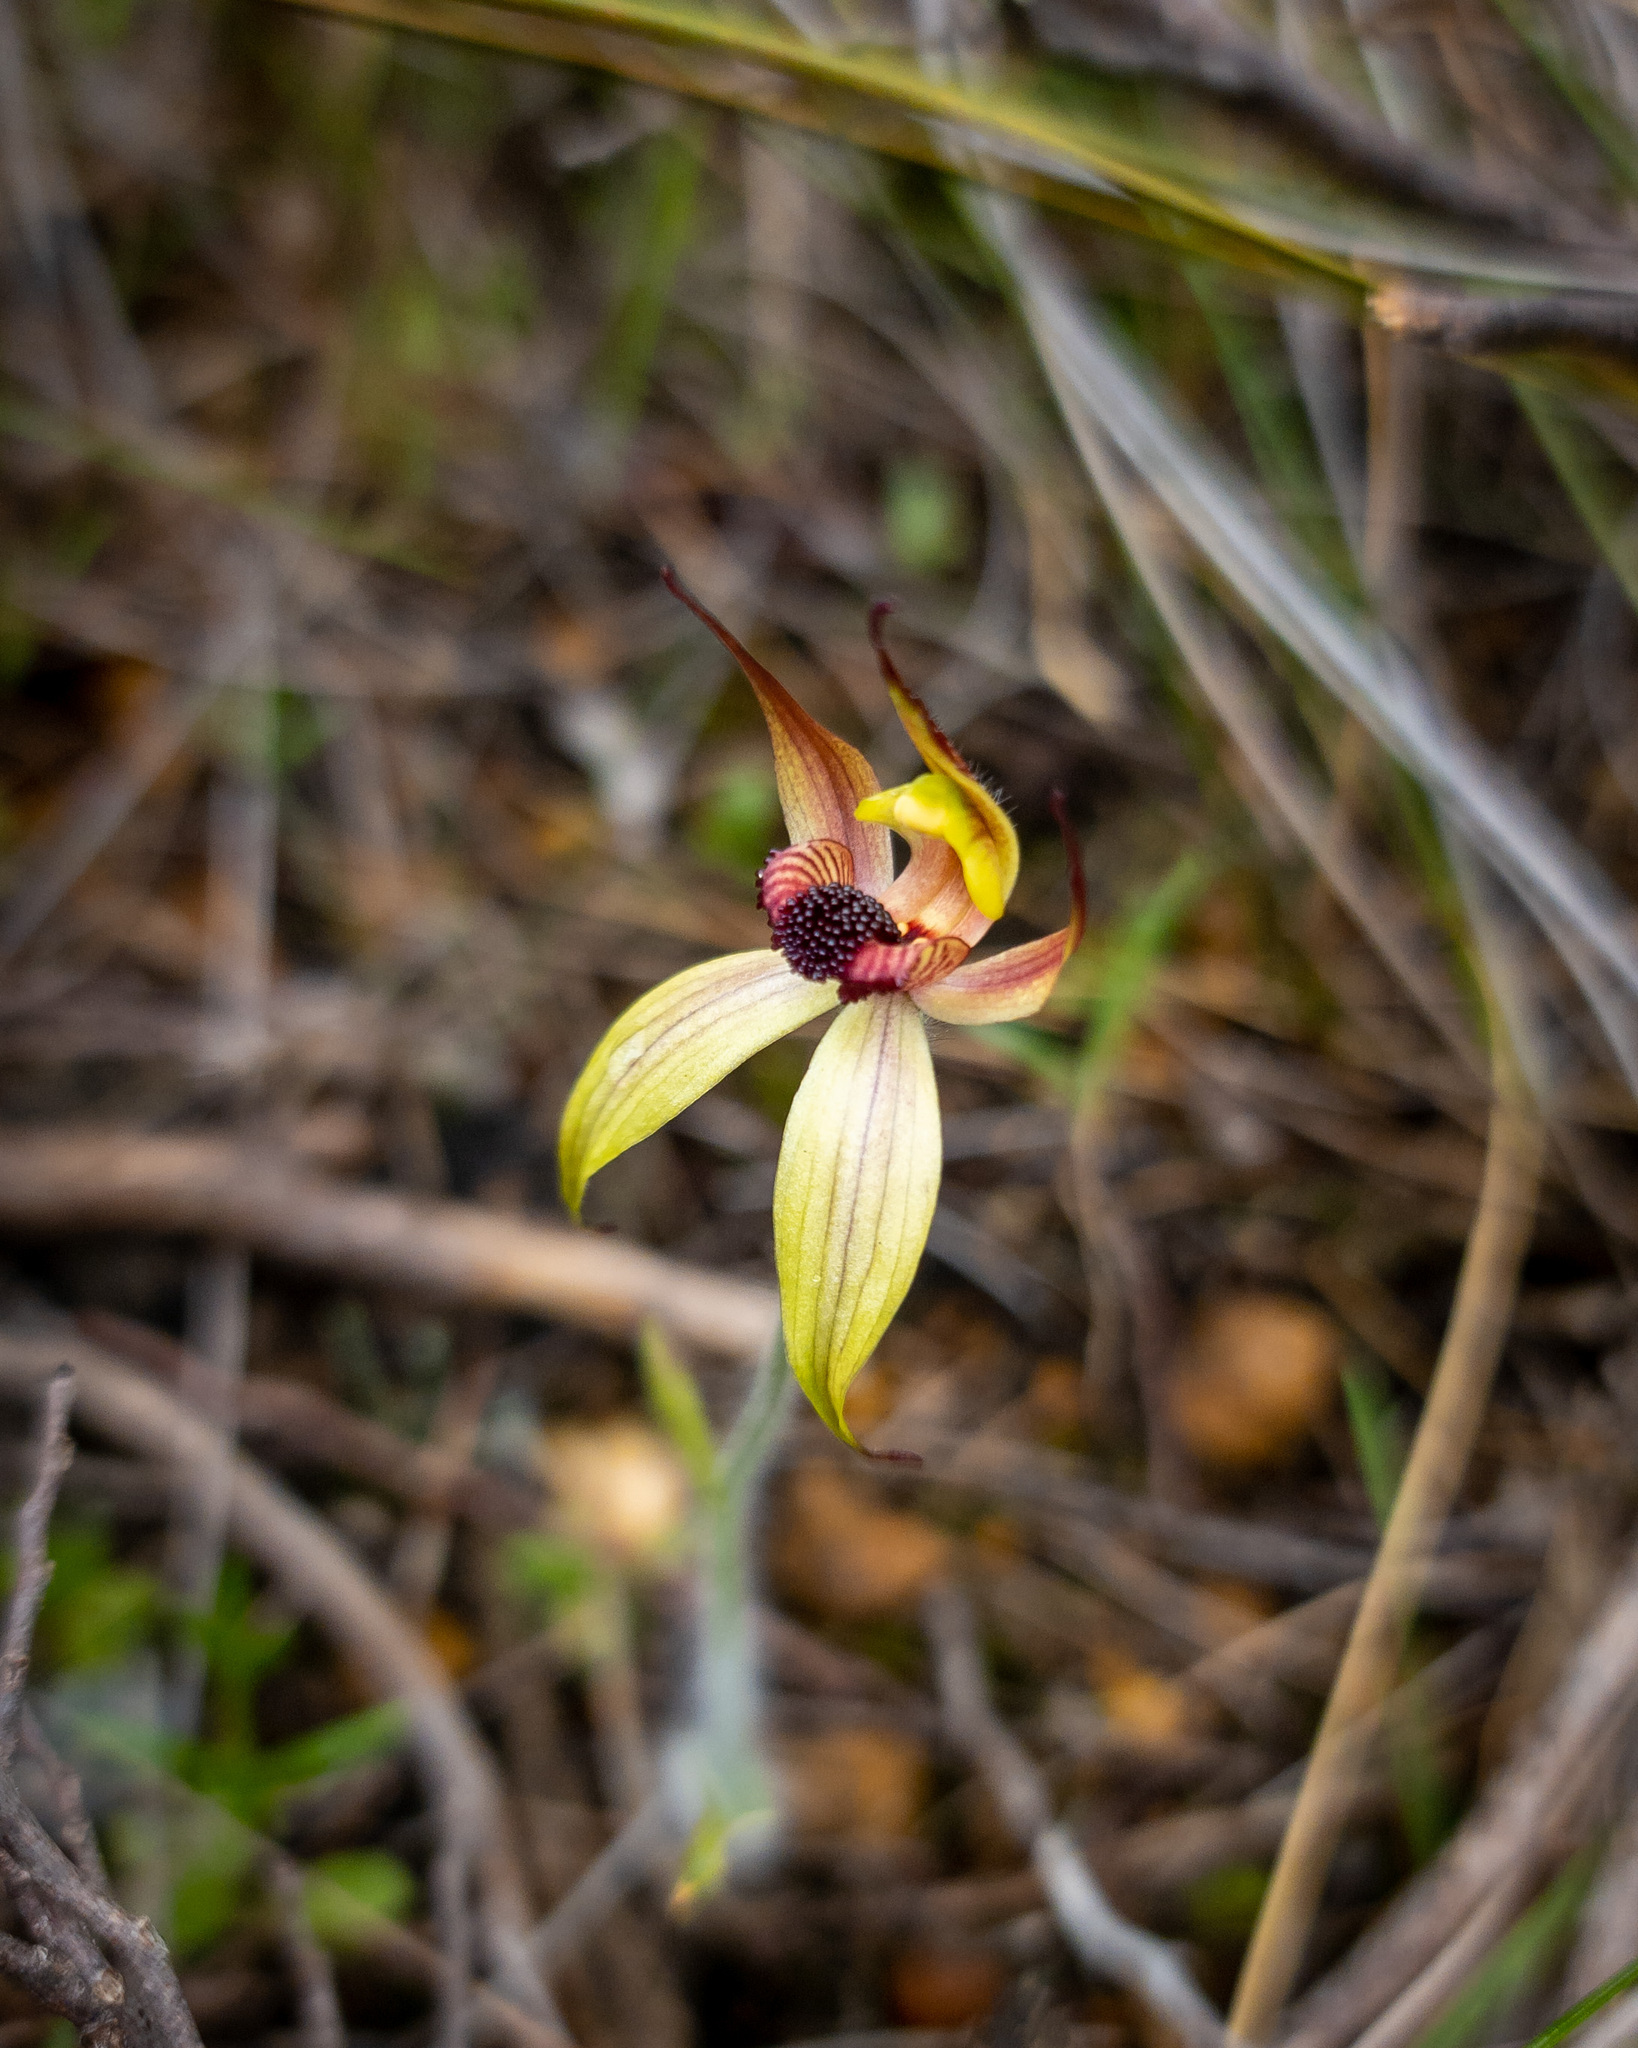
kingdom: Plantae
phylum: Tracheophyta
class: Liliopsida
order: Asparagales
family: Orchidaceae
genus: Caladenia
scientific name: Caladenia macrostylis
